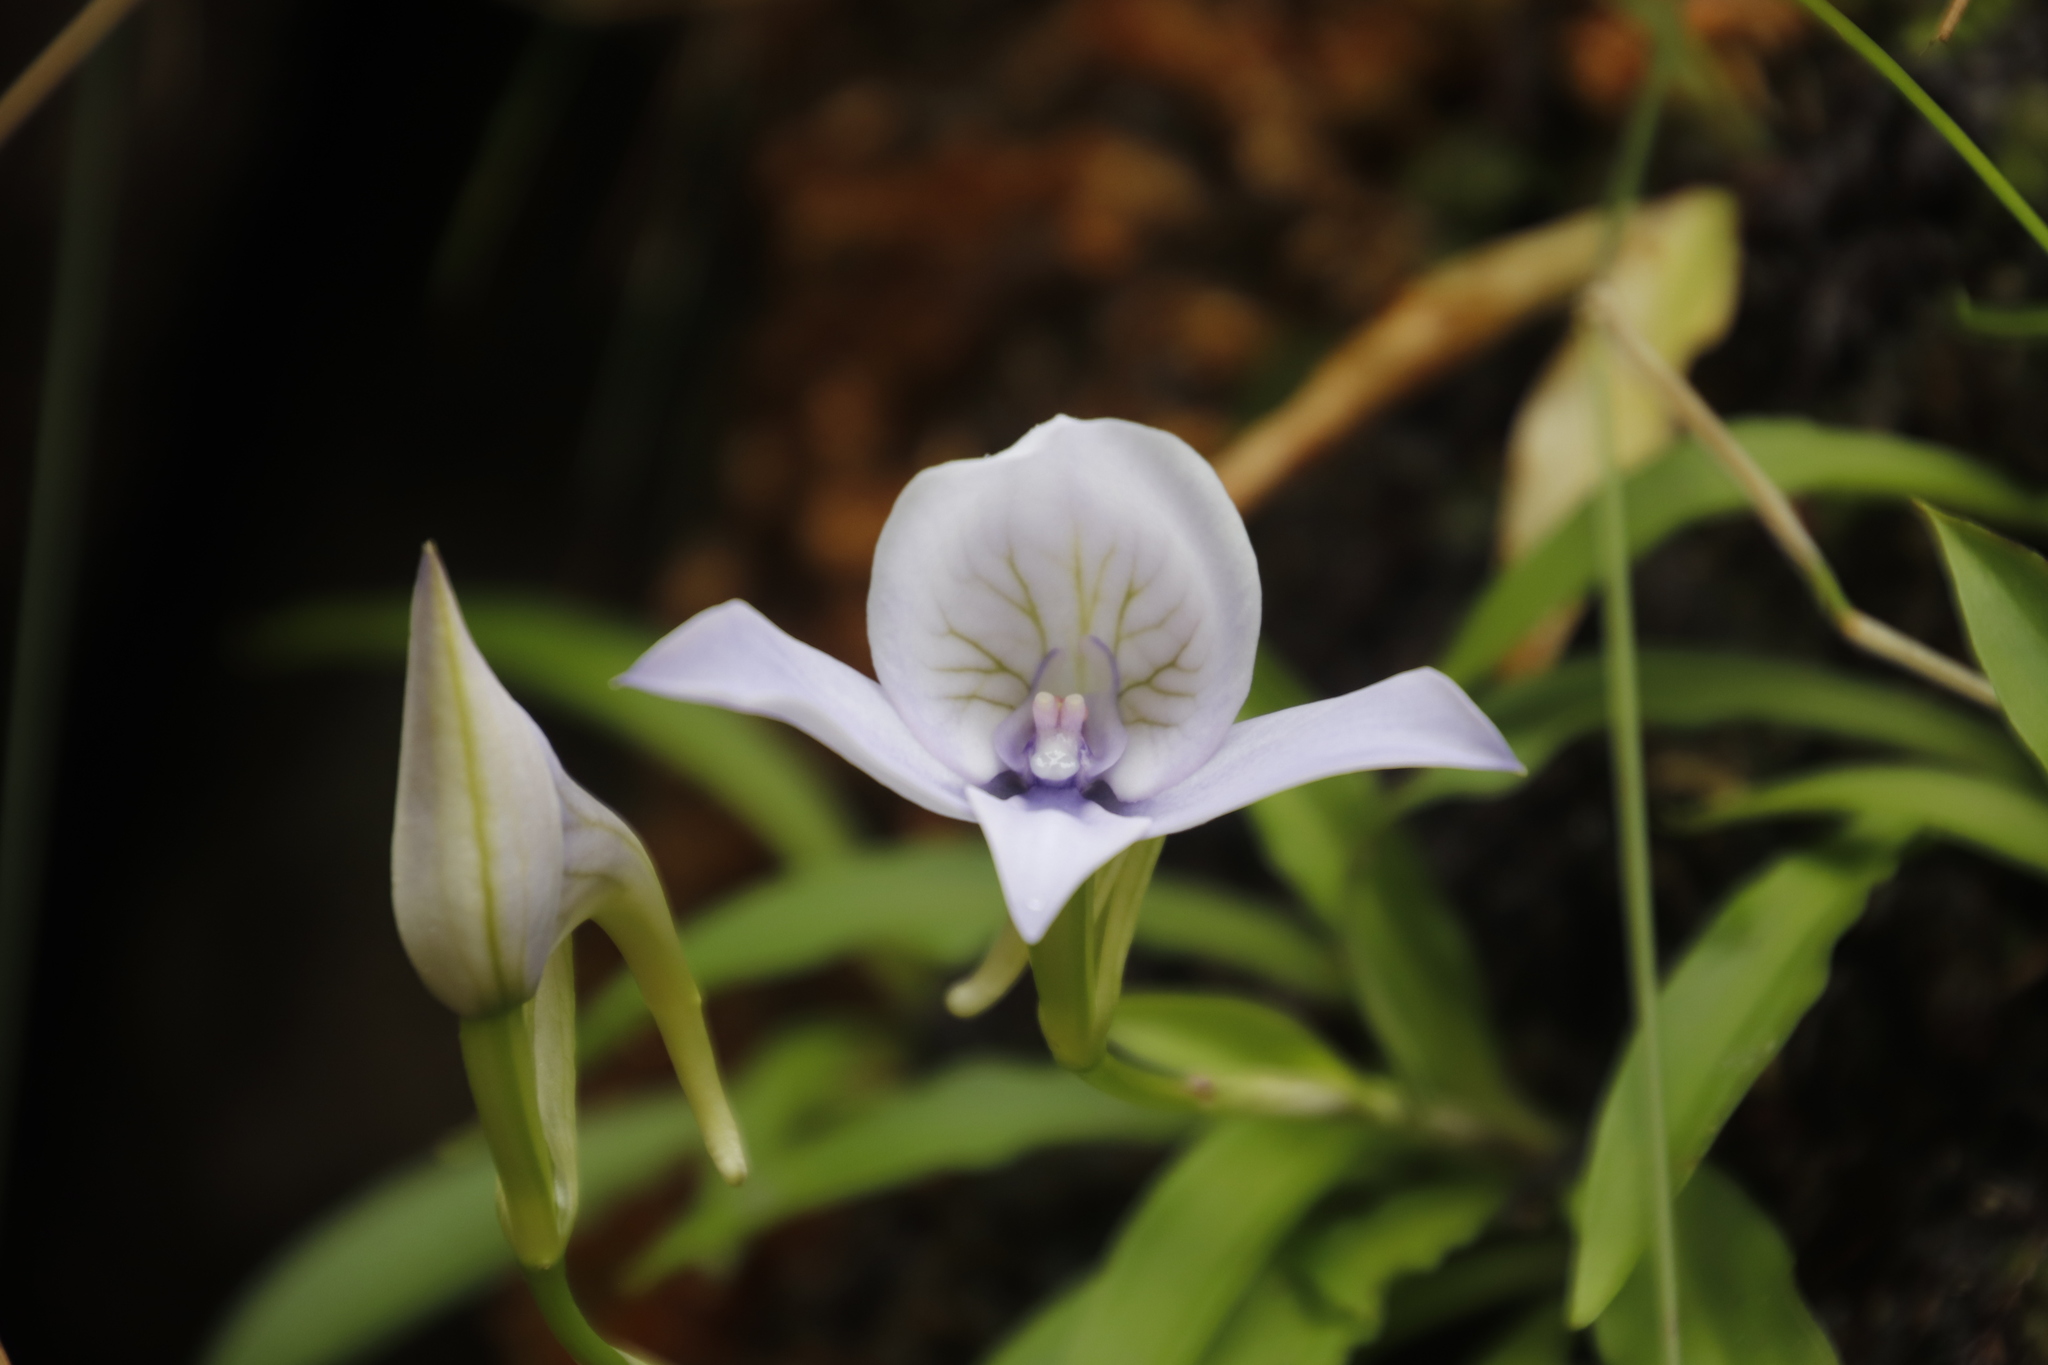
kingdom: Plantae
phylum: Tracheophyta
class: Liliopsida
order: Asparagales
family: Orchidaceae
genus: Disa
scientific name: Disa longicornu
